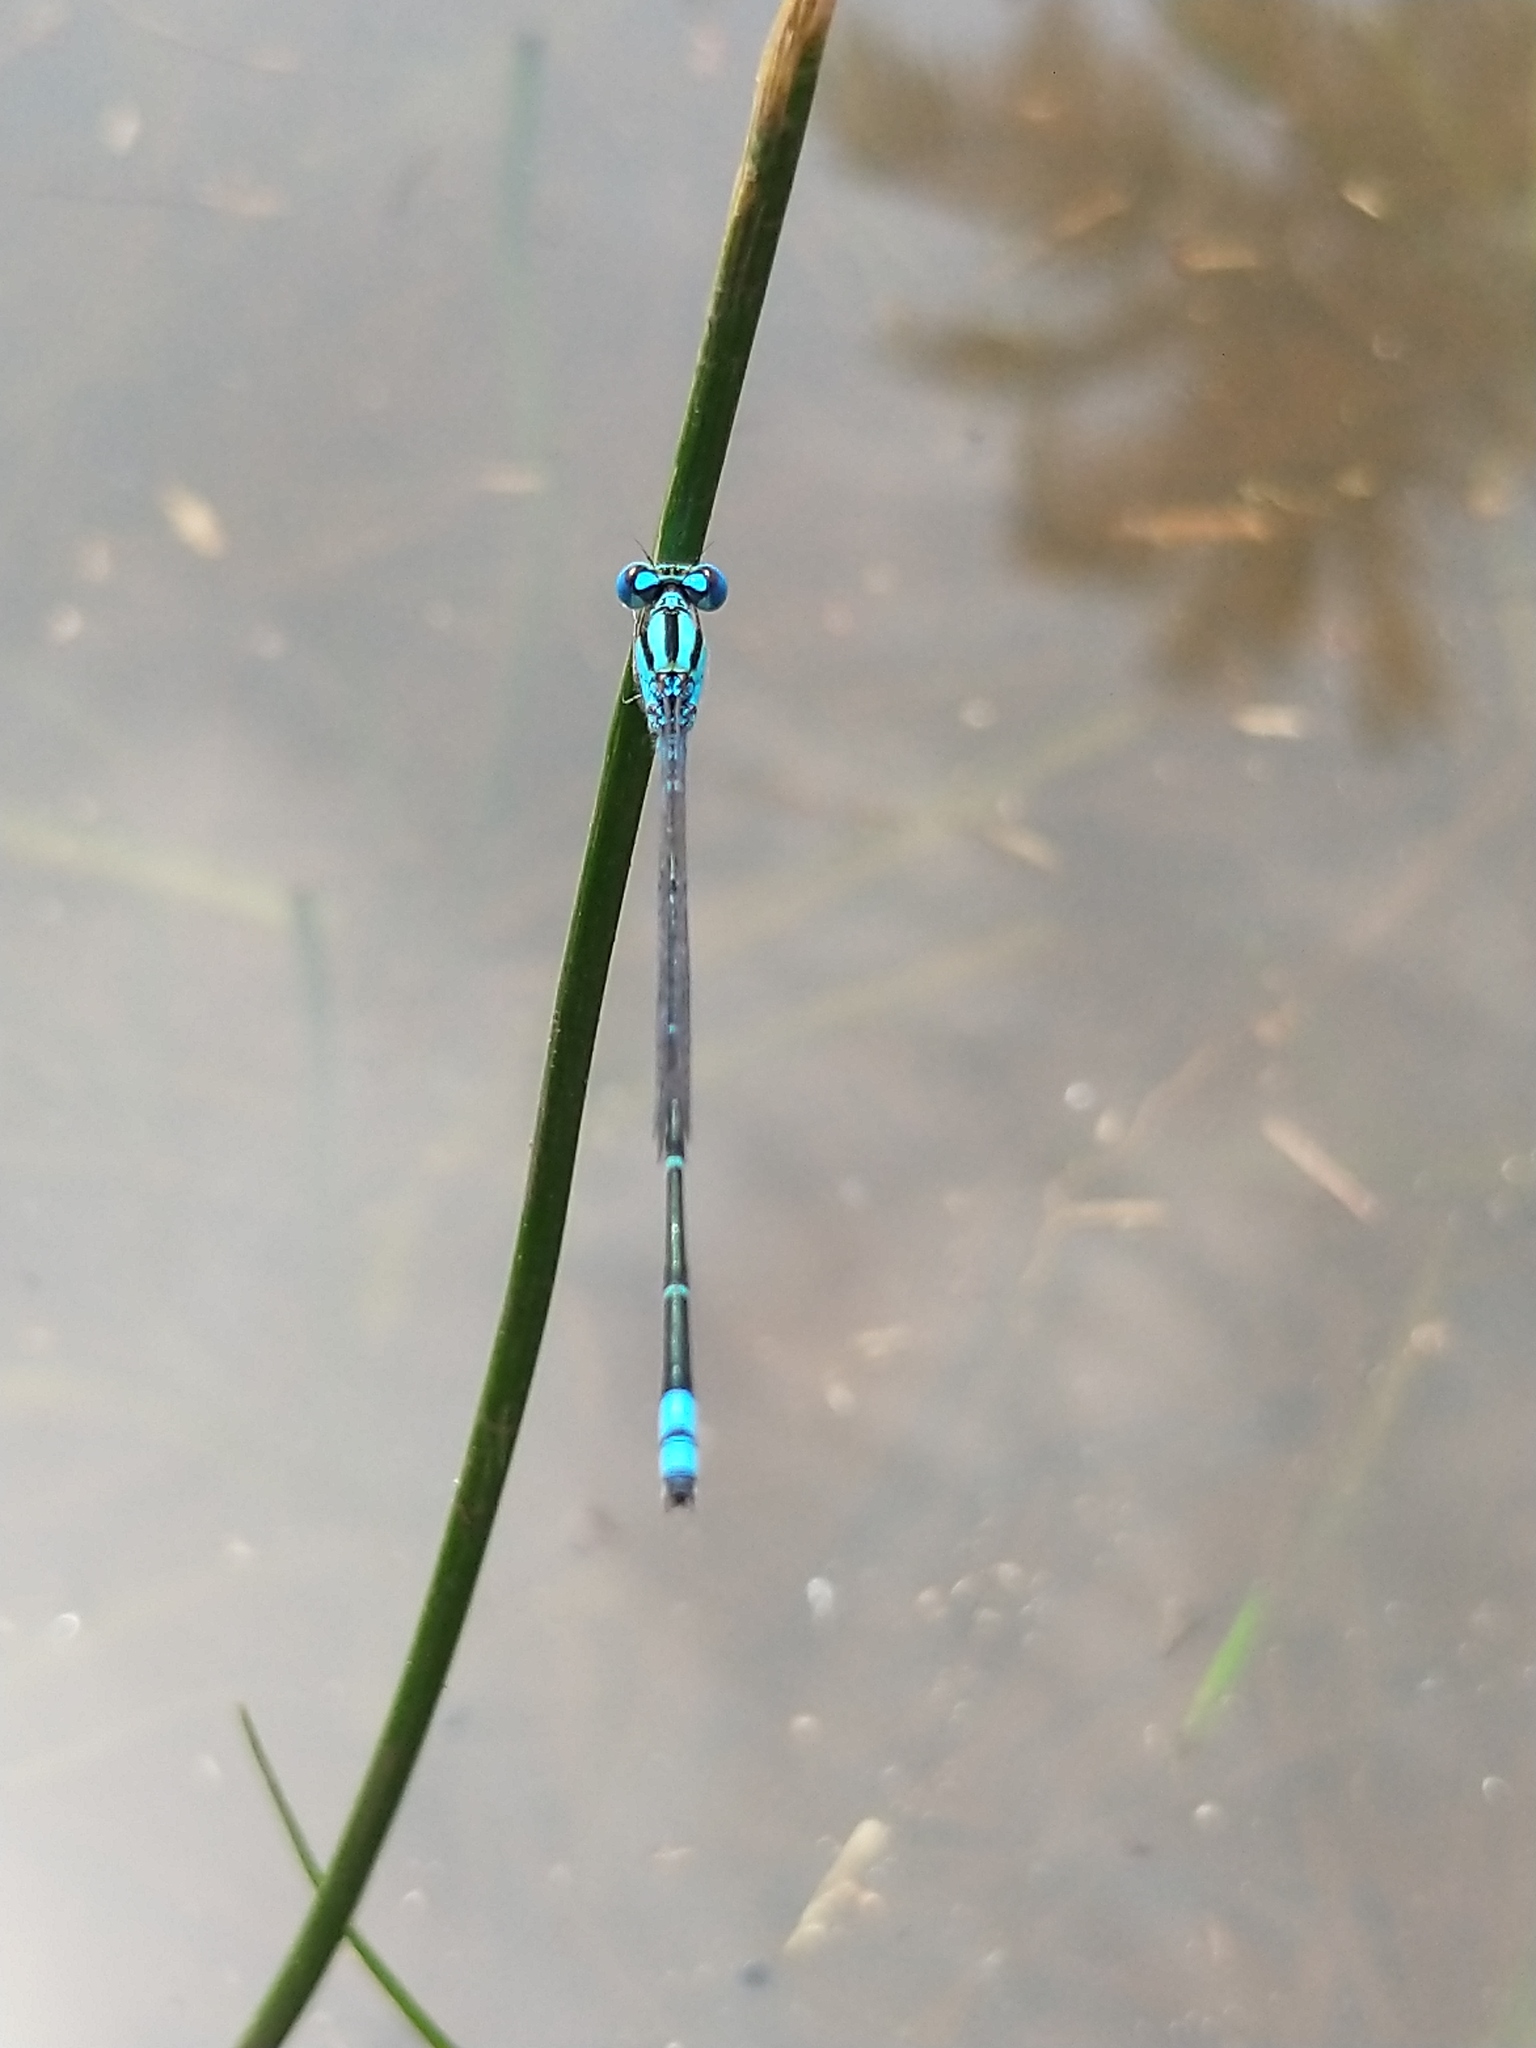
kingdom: Animalia
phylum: Arthropoda
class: Insecta
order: Odonata
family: Coenagrionidae
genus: Pseudagrion
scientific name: Pseudagrion microcephalum
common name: Blue riverdamsel
